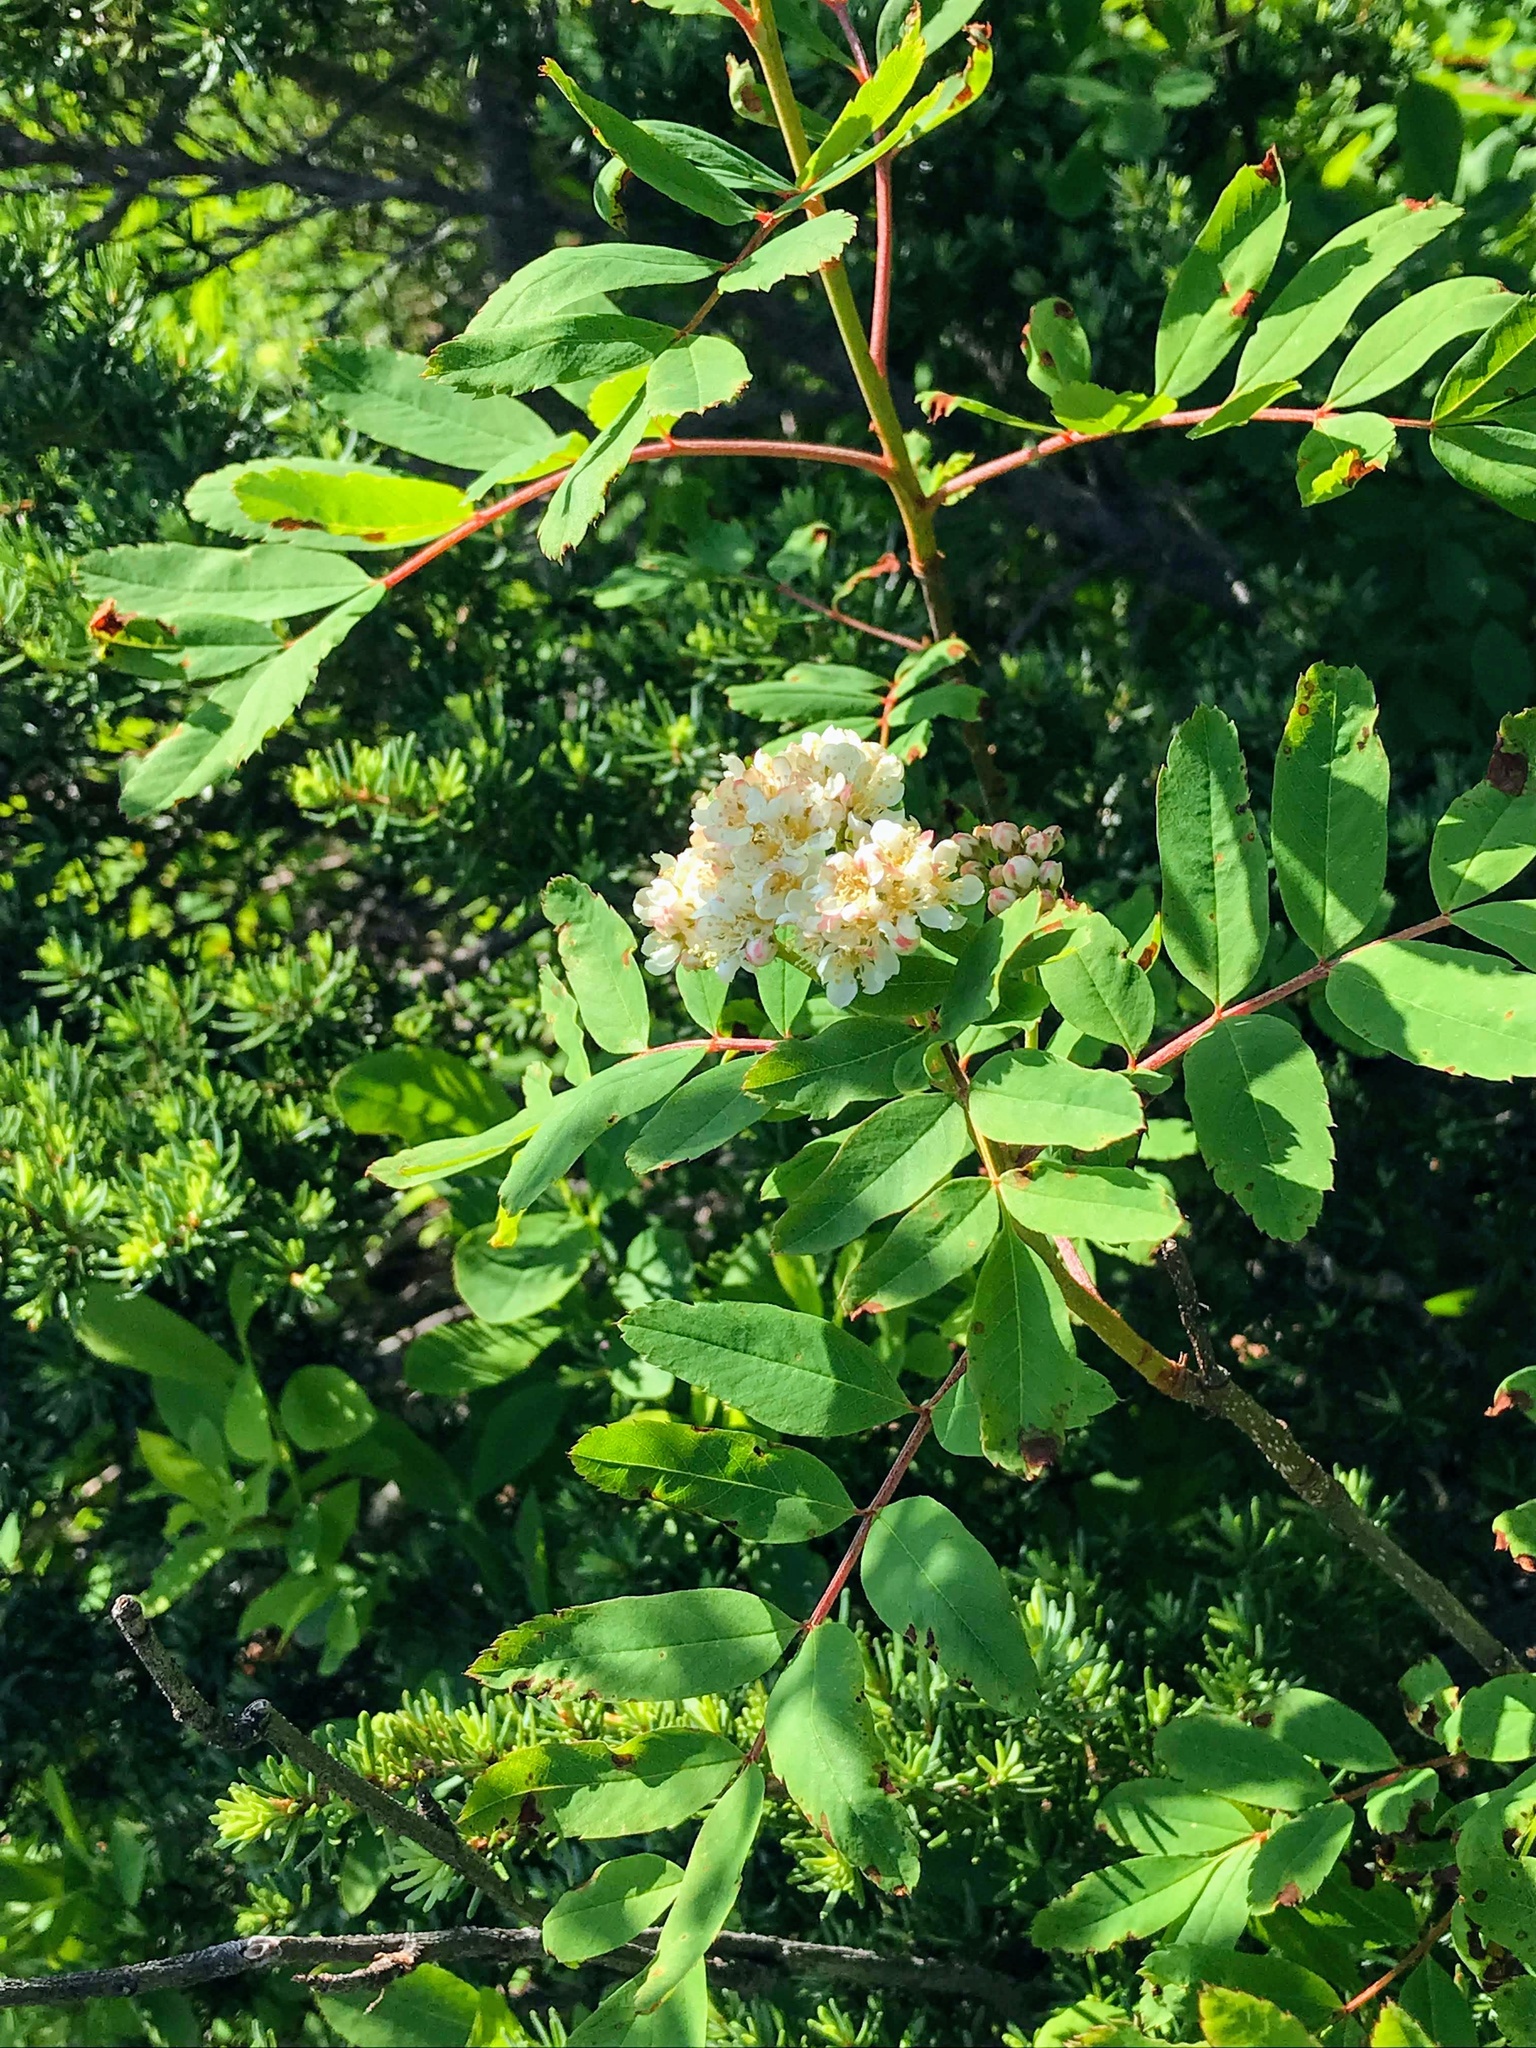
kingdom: Plantae
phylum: Tracheophyta
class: Magnoliopsida
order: Rosales
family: Rosaceae
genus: Sorbus
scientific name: Sorbus sitchensis
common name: Sitka mountain-ash
